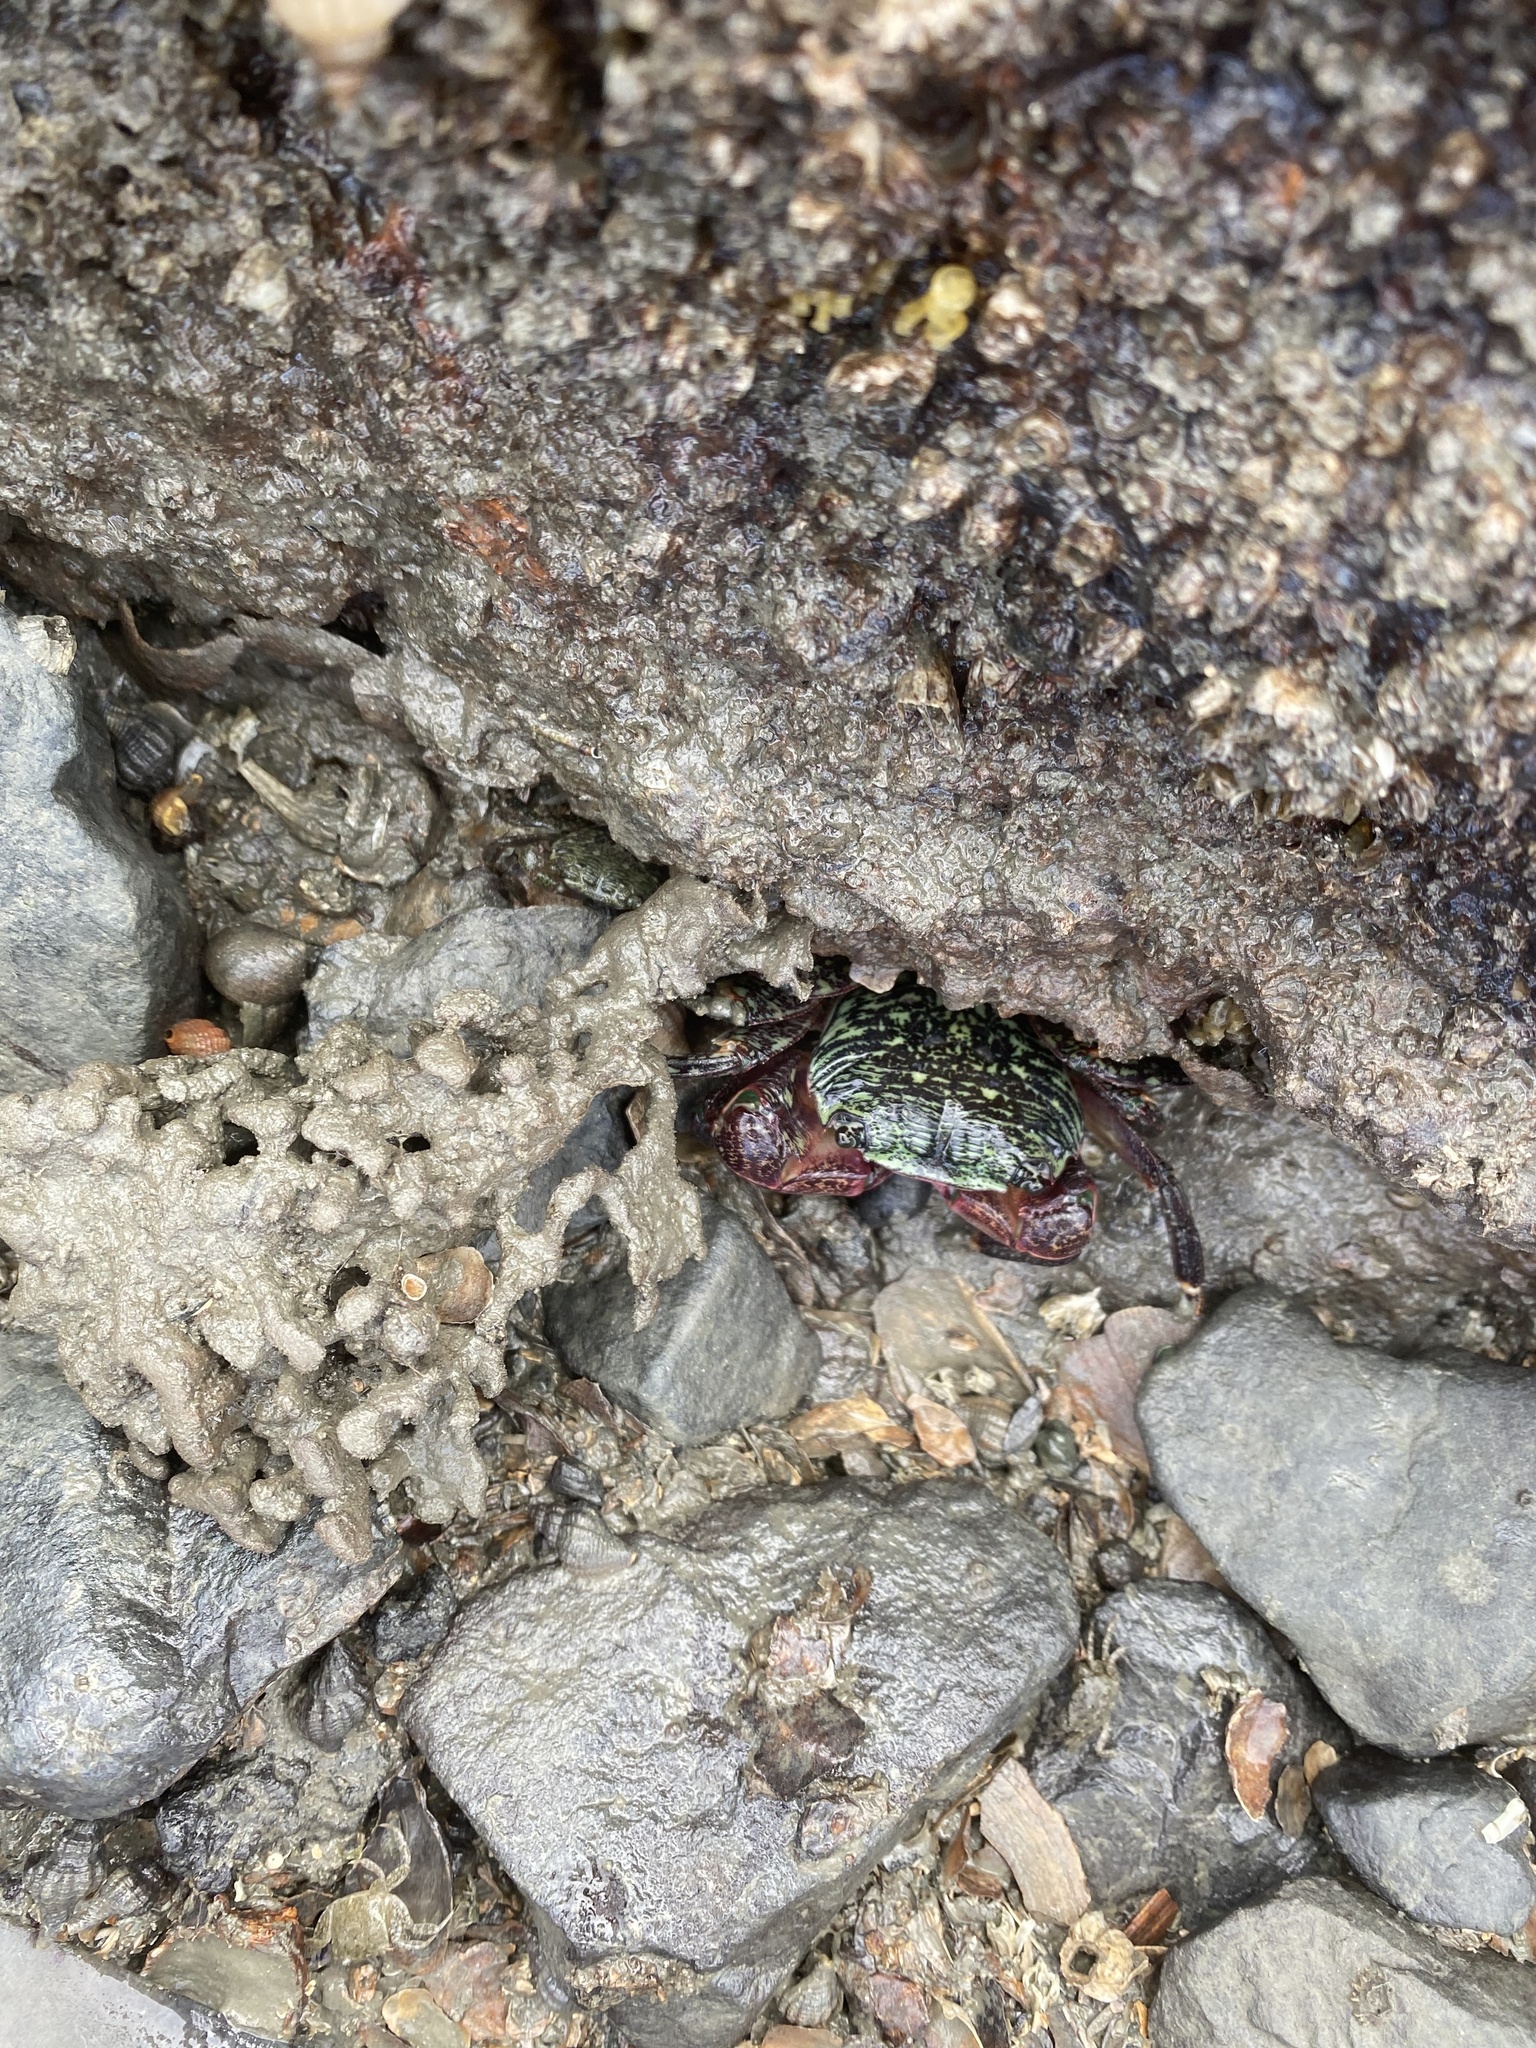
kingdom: Animalia
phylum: Arthropoda
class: Malacostraca
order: Decapoda
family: Grapsidae
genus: Pachygrapsus
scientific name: Pachygrapsus crassipes
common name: Striped shore crab
